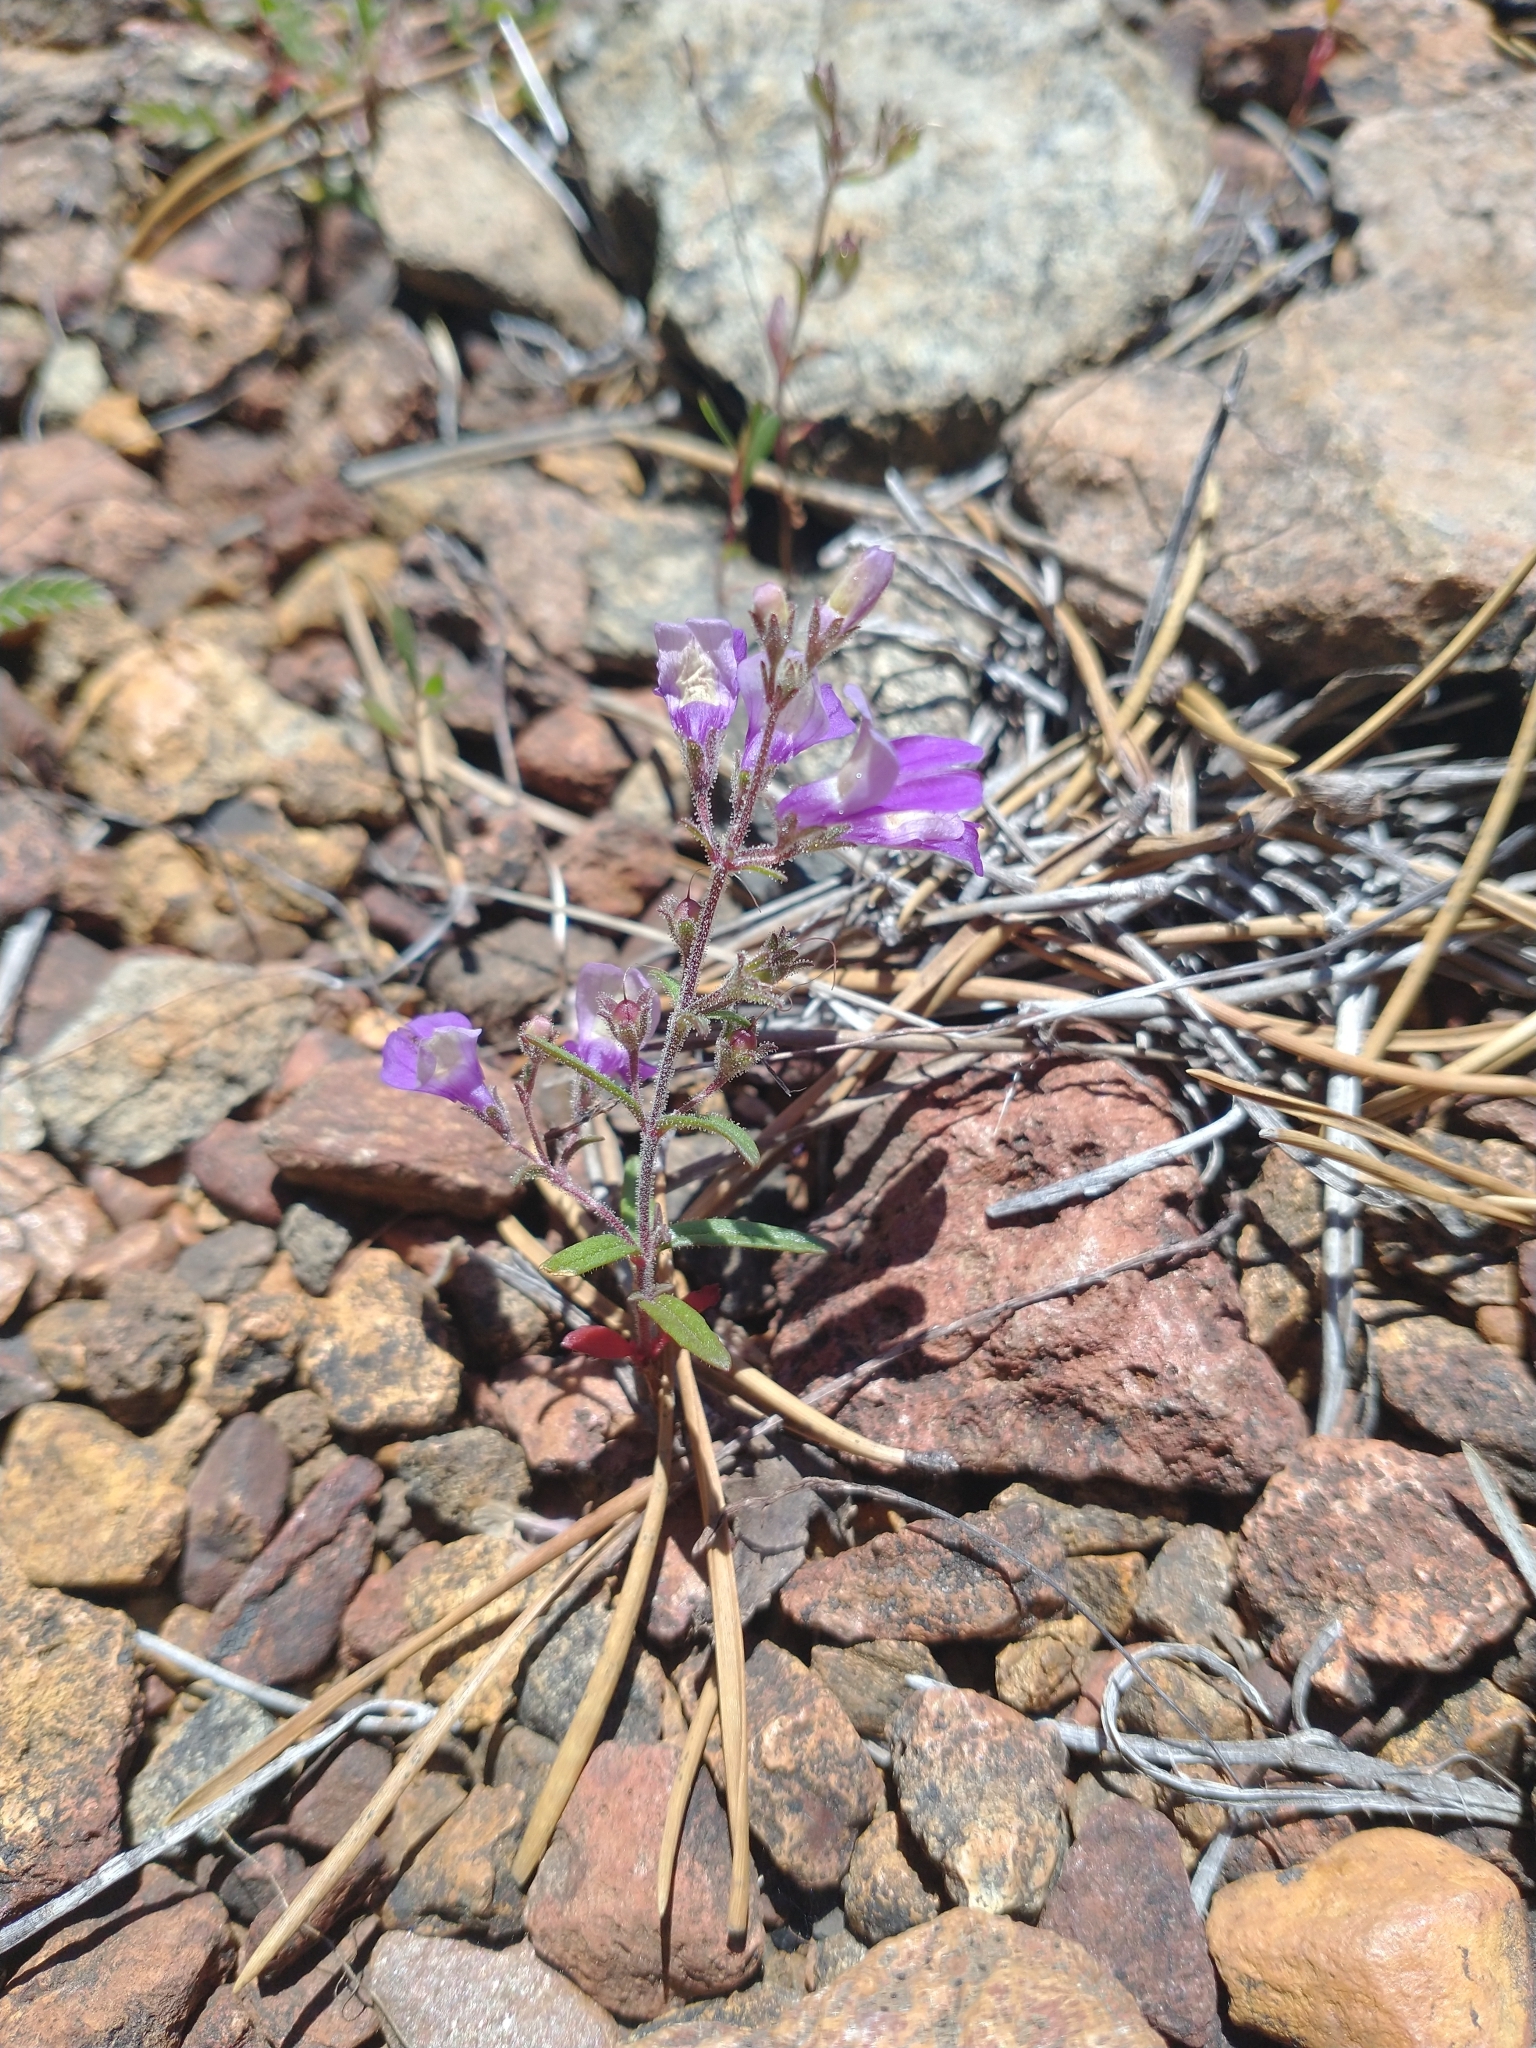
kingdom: Plantae
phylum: Tracheophyta
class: Magnoliopsida
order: Lamiales
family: Plantaginaceae
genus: Collinsia
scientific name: Collinsia linearis
